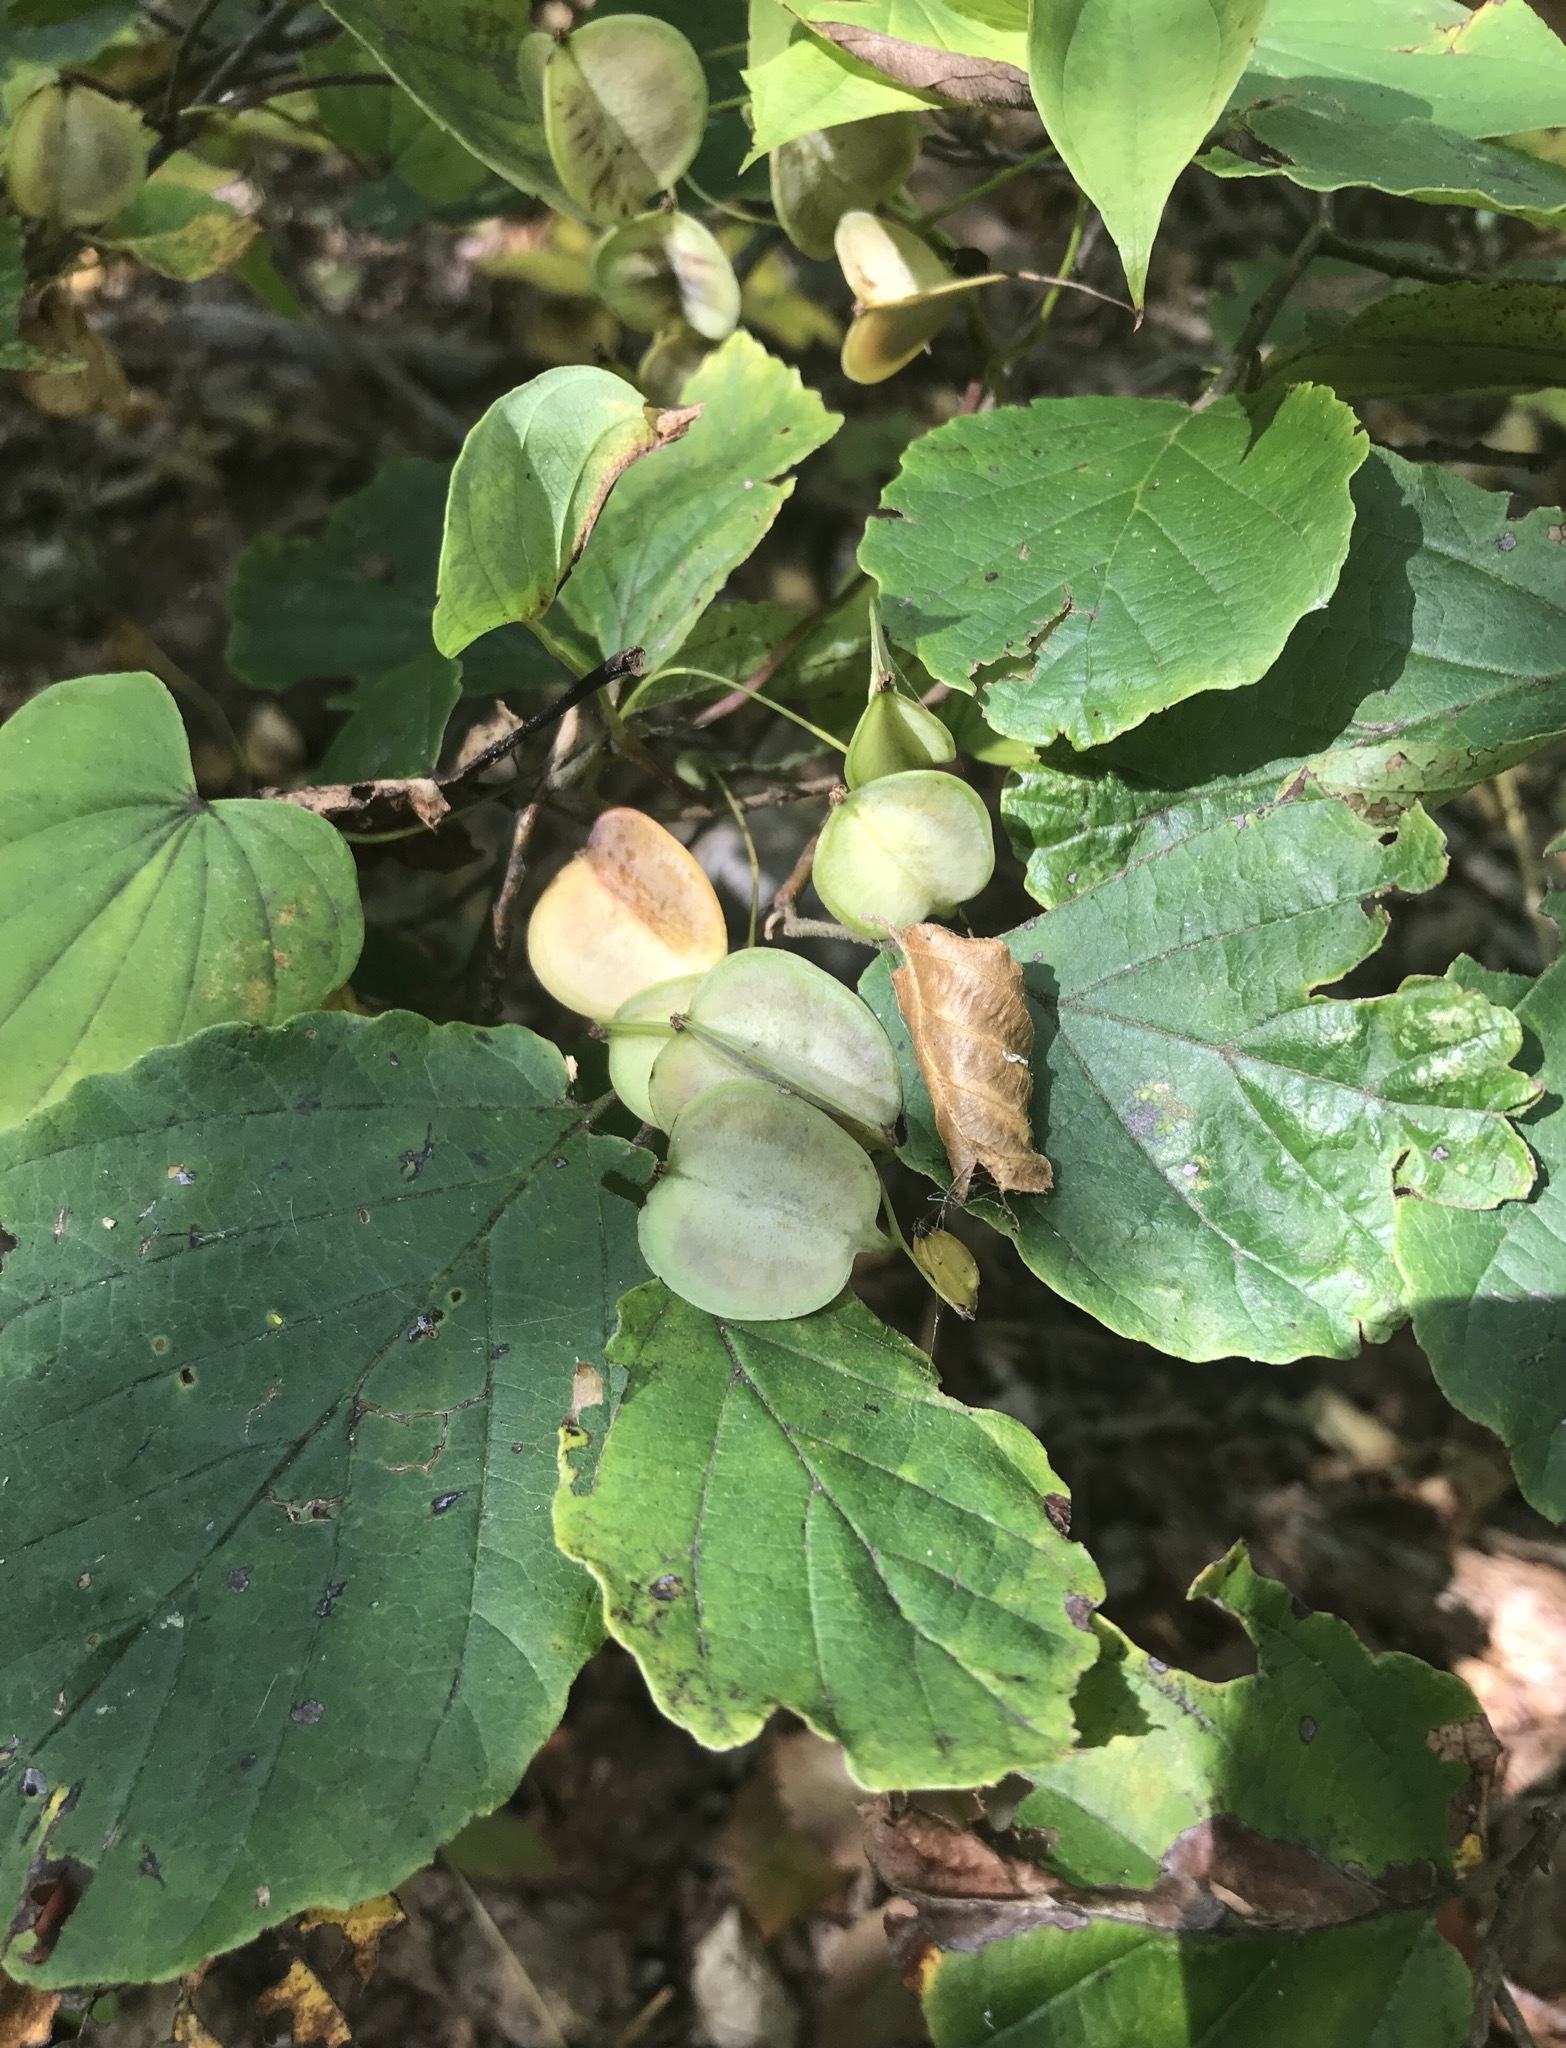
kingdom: Plantae
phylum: Tracheophyta
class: Liliopsida
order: Dioscoreales
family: Dioscoreaceae
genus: Dioscorea
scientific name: Dioscorea villosa
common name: Wild yam
